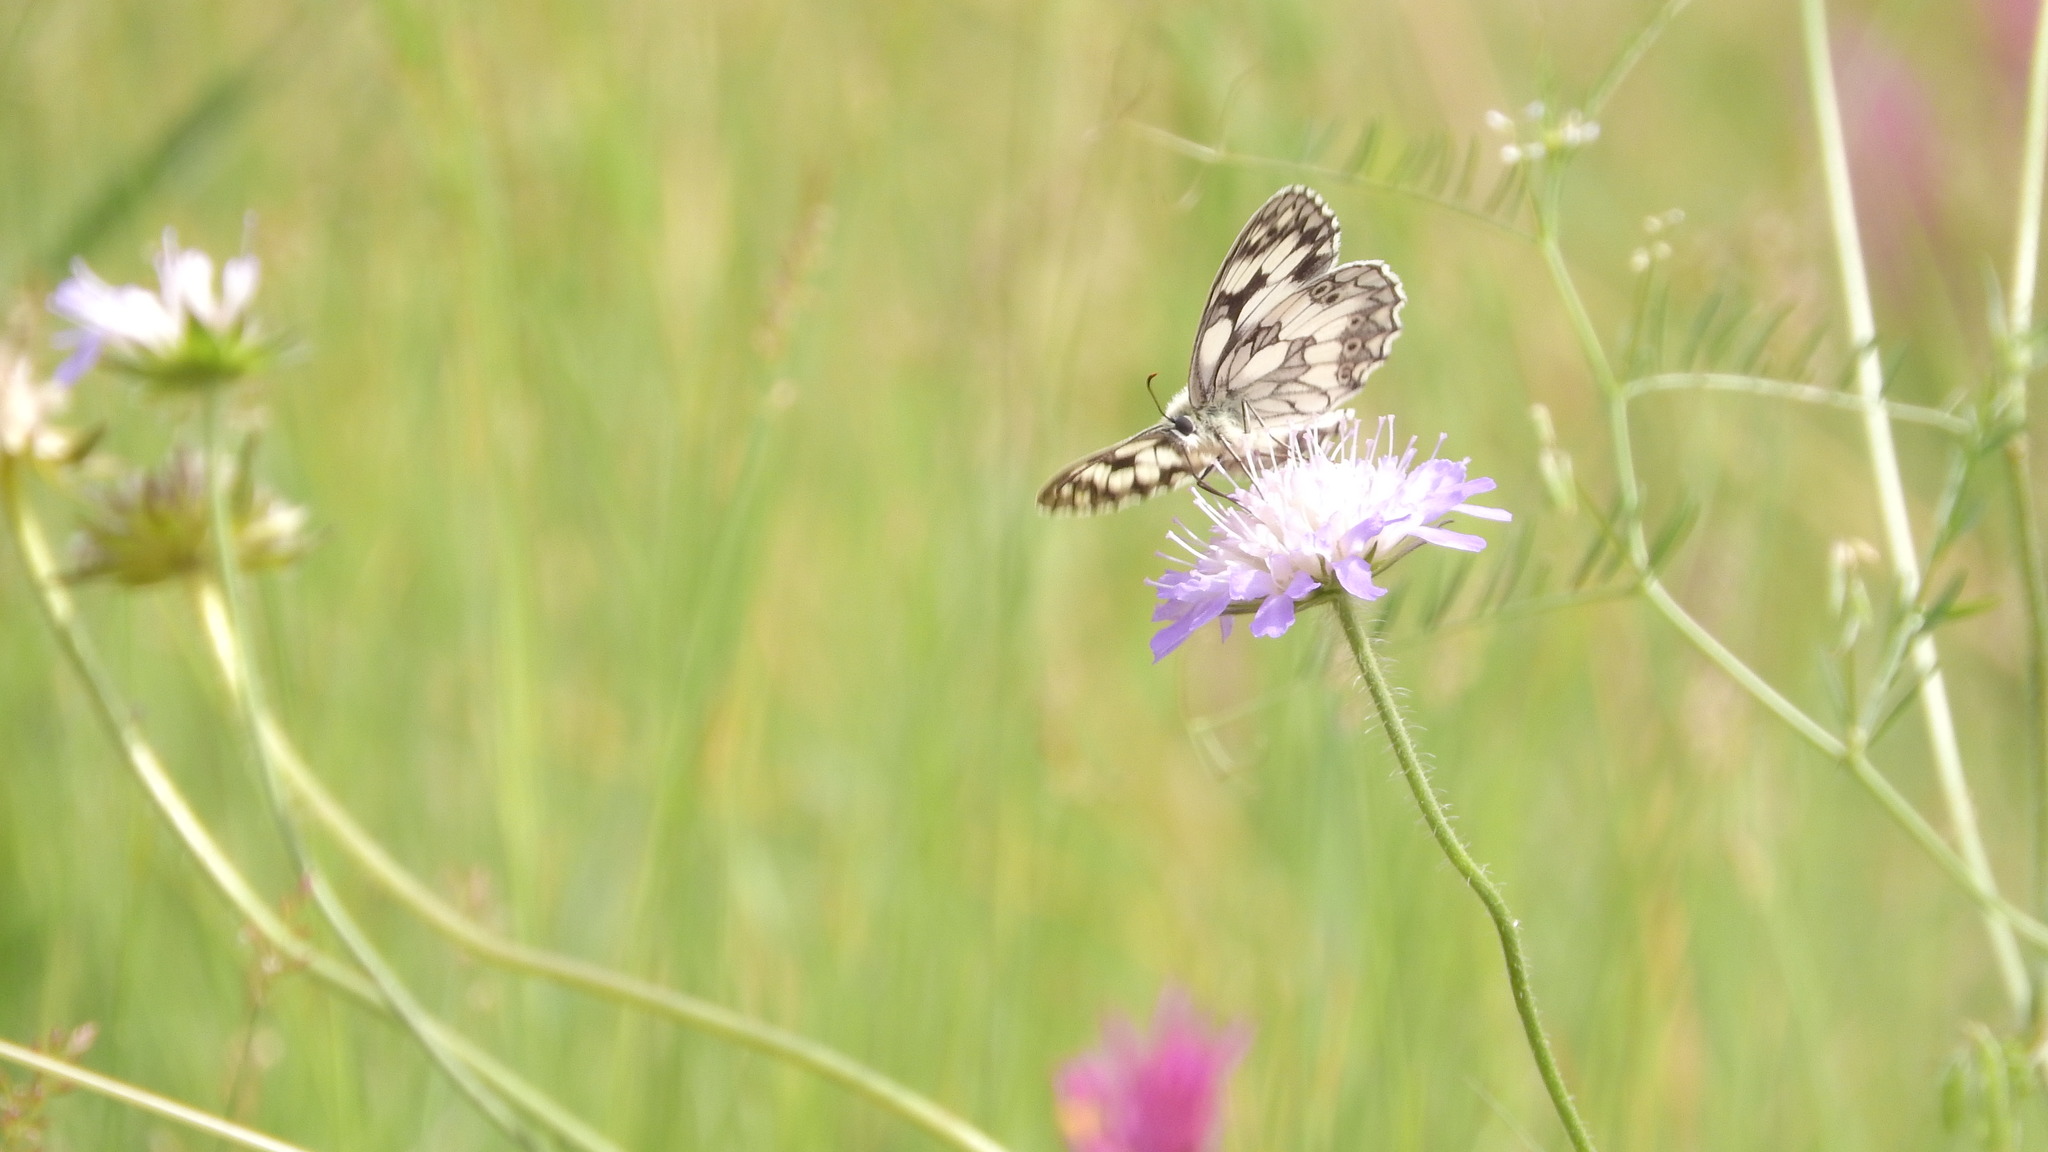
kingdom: Animalia
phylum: Arthropoda
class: Insecta
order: Lepidoptera
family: Nymphalidae
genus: Melanargia
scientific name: Melanargia galathea
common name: Marbled white
